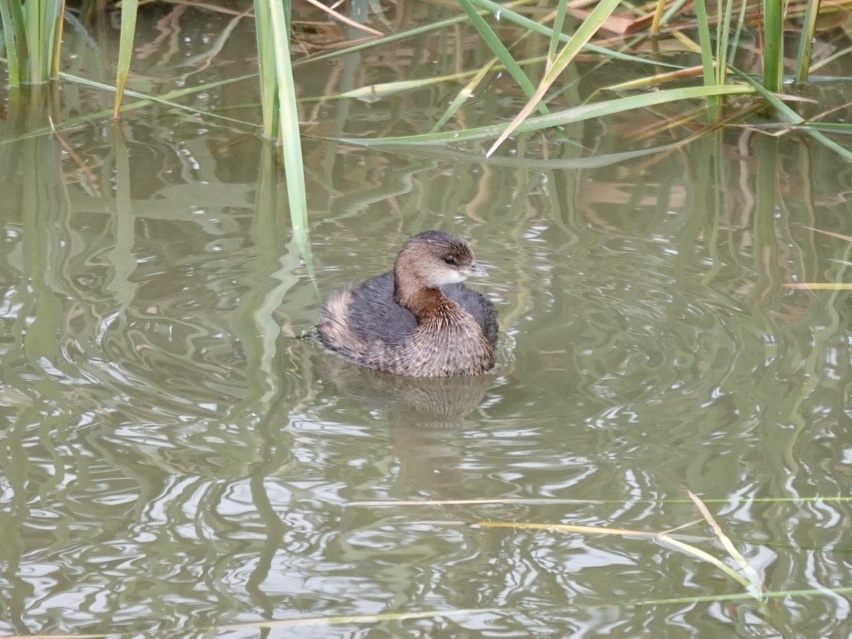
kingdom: Animalia
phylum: Chordata
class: Aves
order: Podicipediformes
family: Podicipedidae
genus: Podilymbus
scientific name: Podilymbus podiceps
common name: Pied-billed grebe
